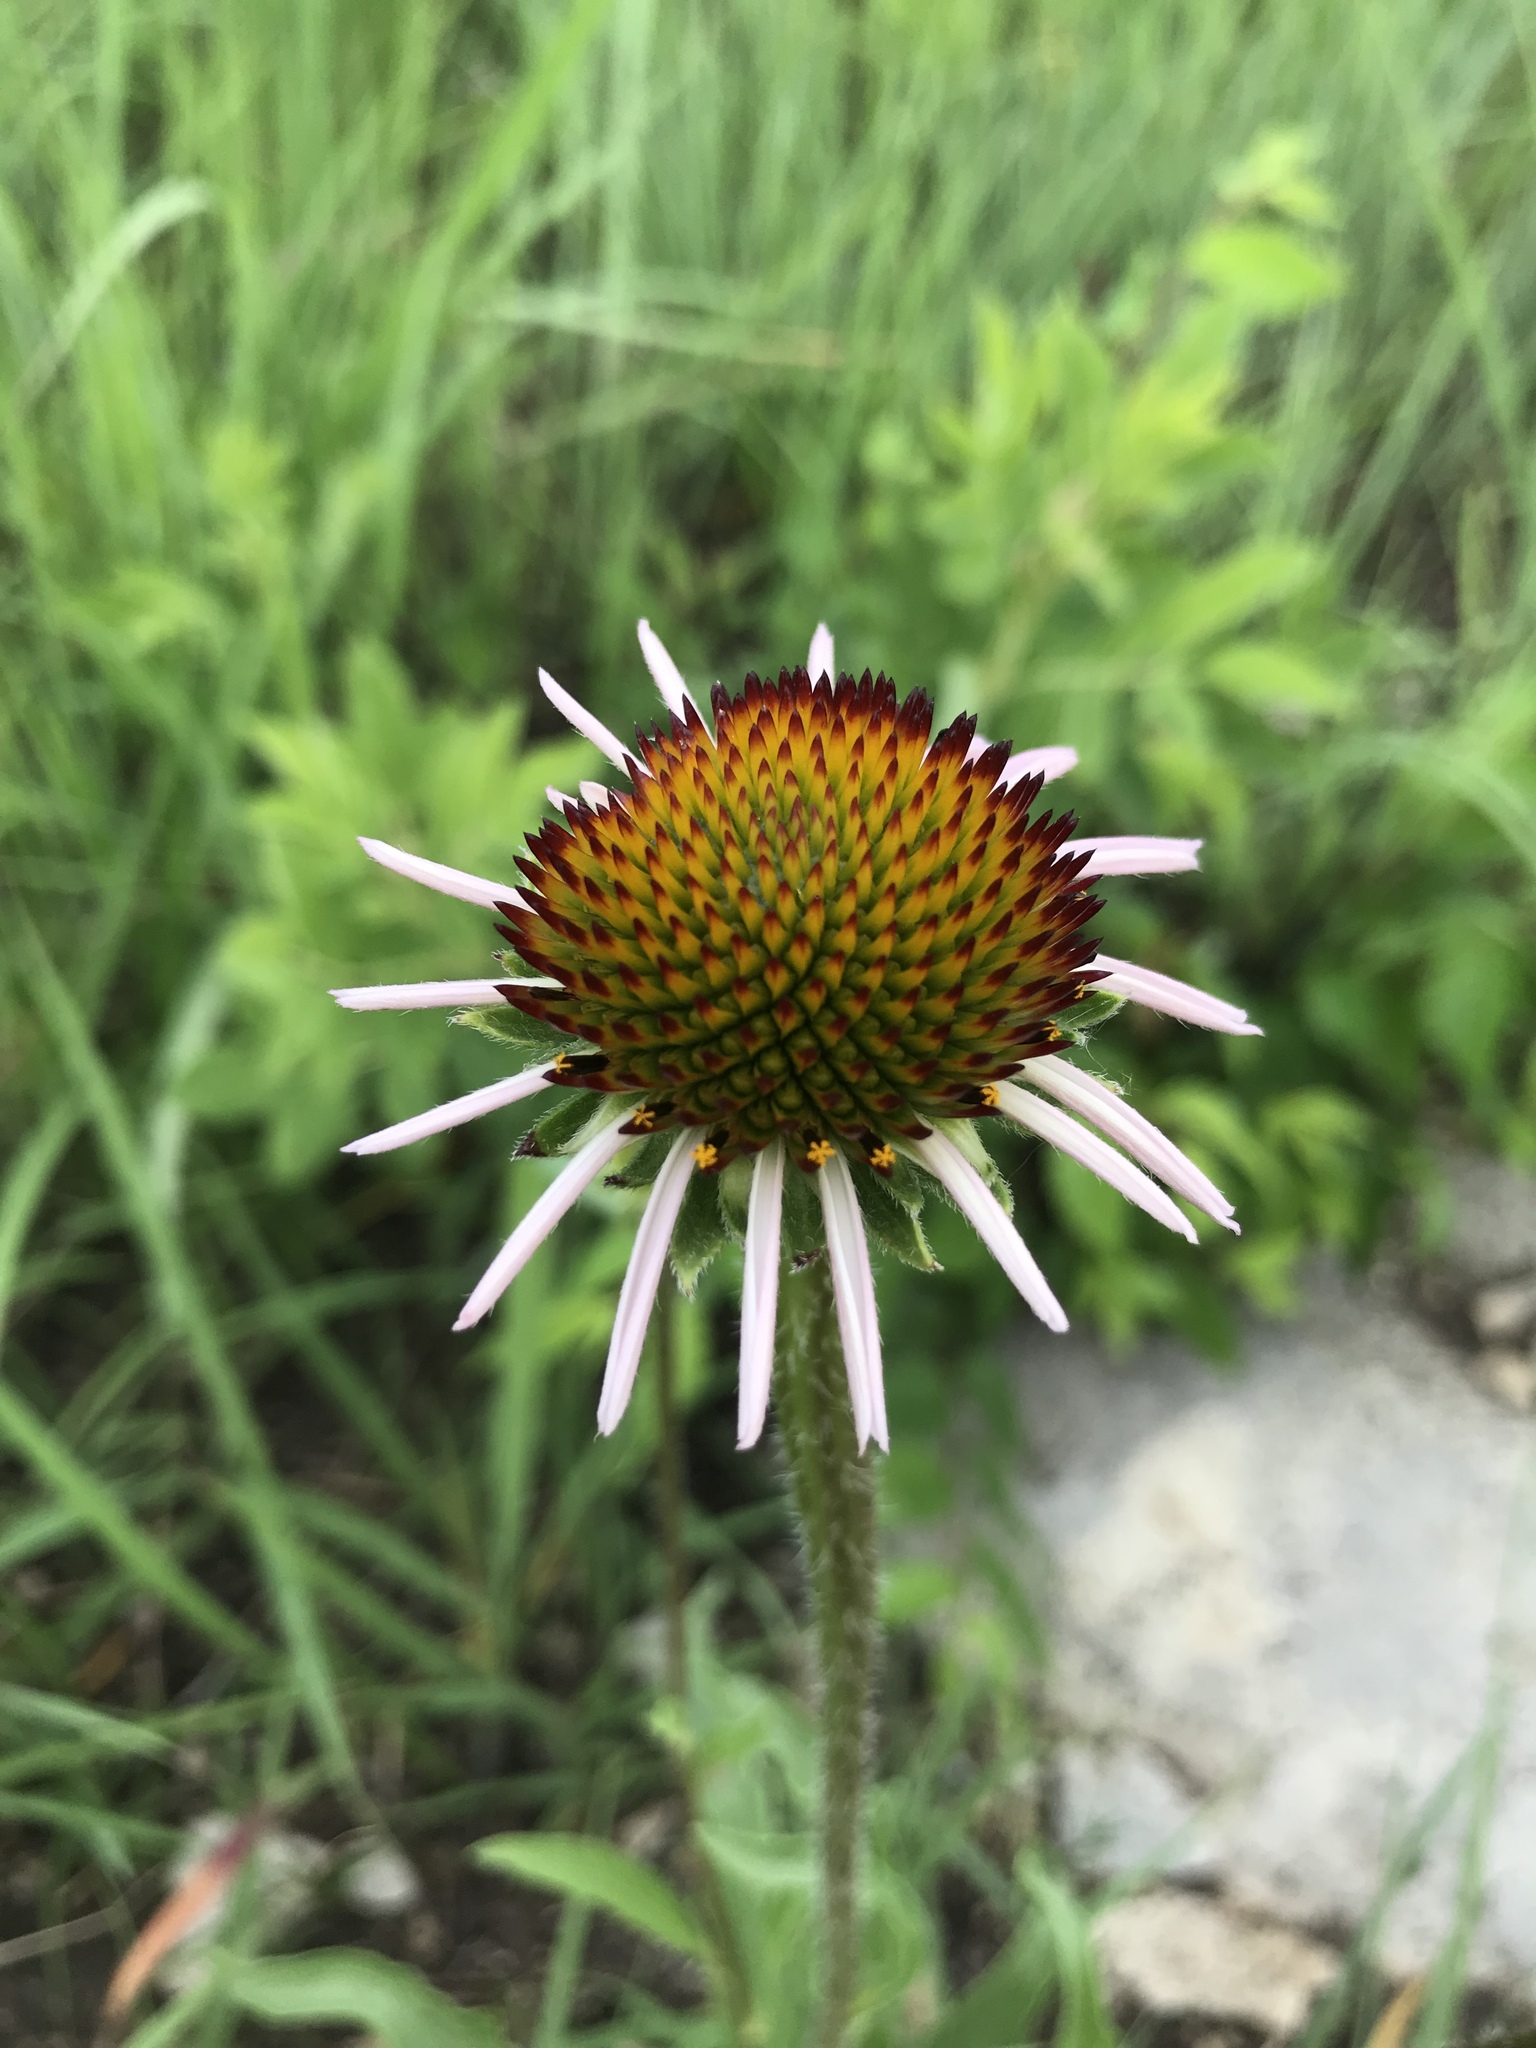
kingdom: Plantae
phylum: Tracheophyta
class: Magnoliopsida
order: Asterales
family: Asteraceae
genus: Echinacea
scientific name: Echinacea angustifolia
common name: Black-sampson echinacea
